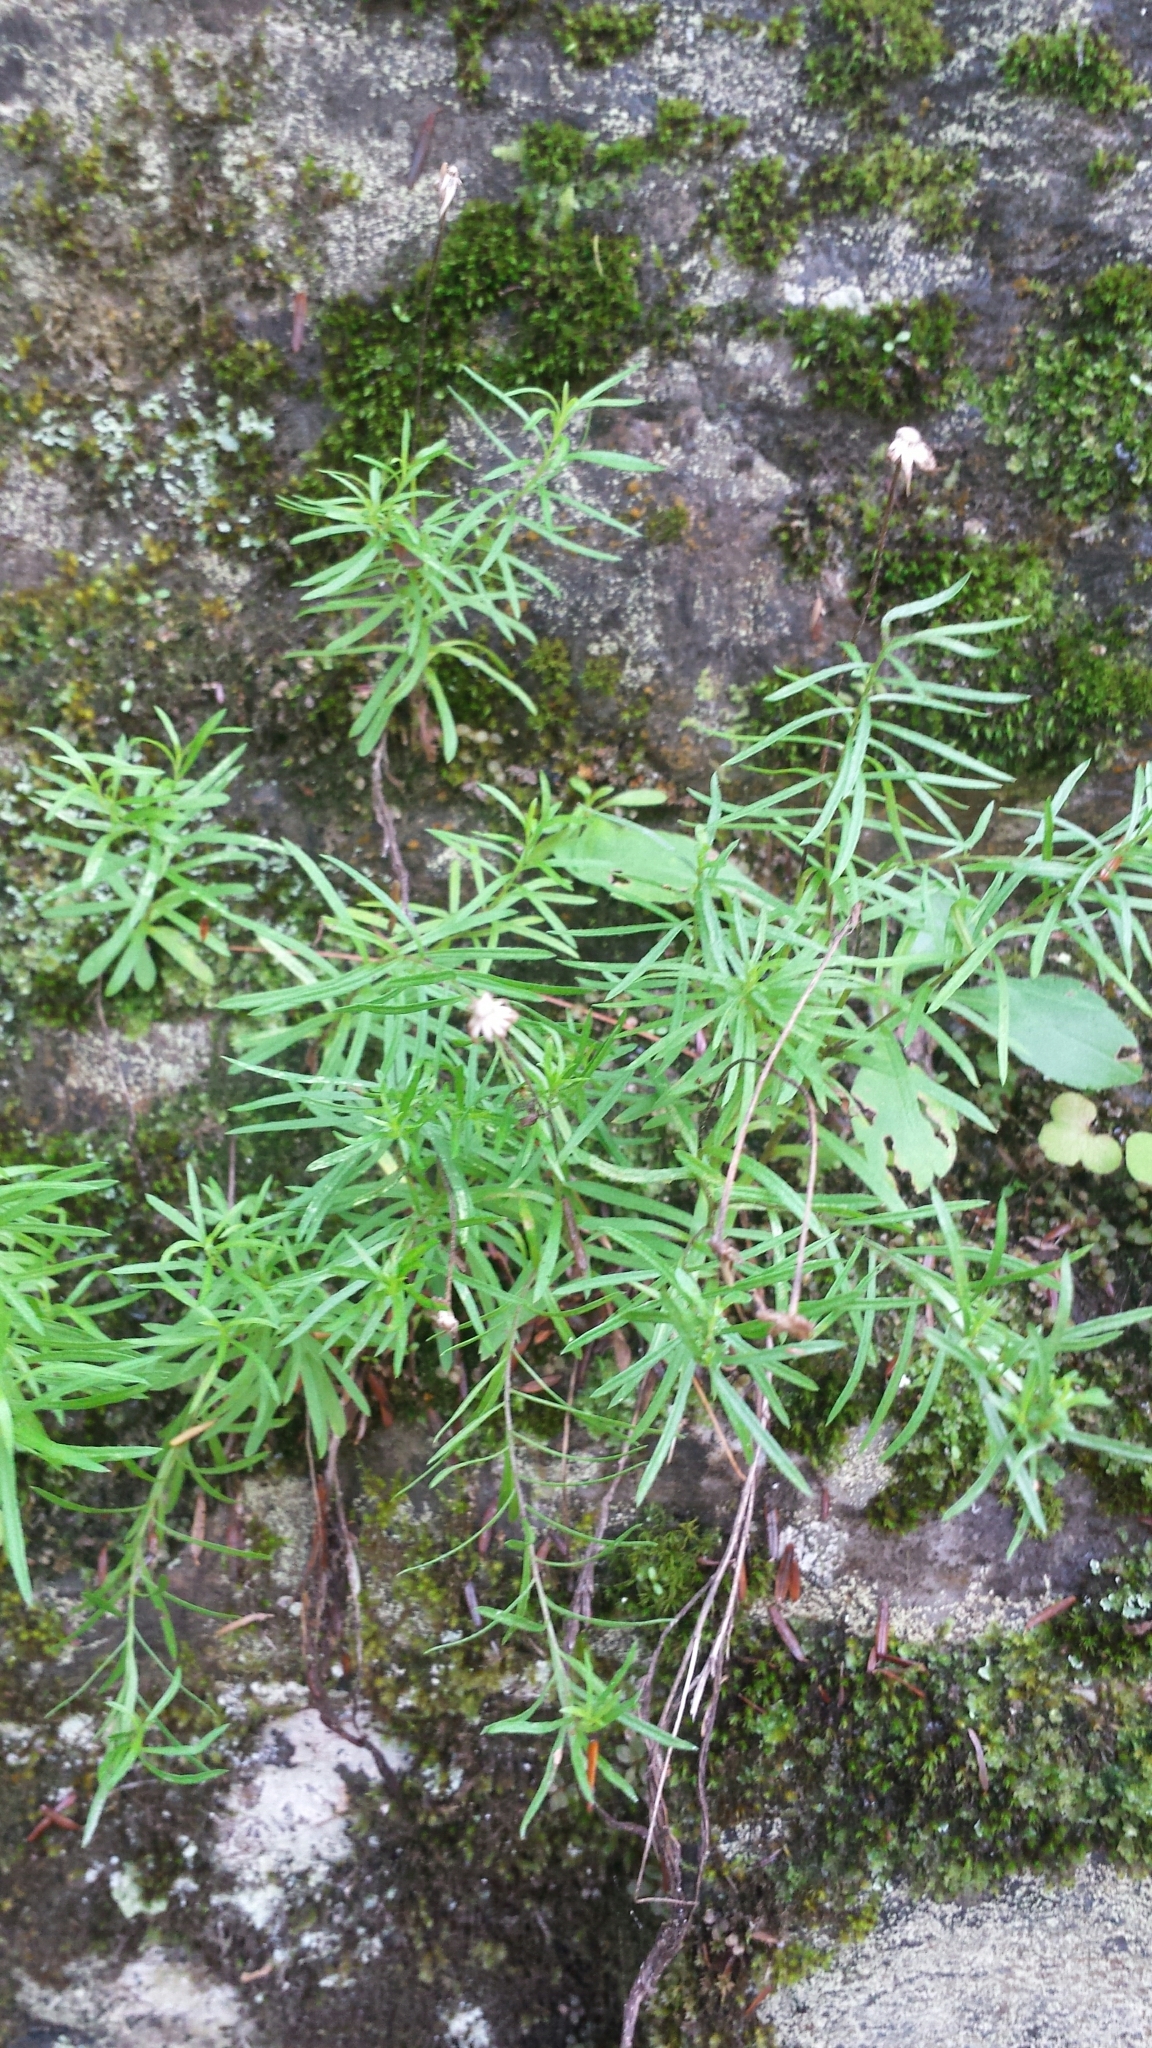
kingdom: Plantae
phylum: Tracheophyta
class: Magnoliopsida
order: Asterales
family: Asteraceae
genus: Erigeron
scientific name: Erigeron hyssopifolius
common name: Daisy fleabane
